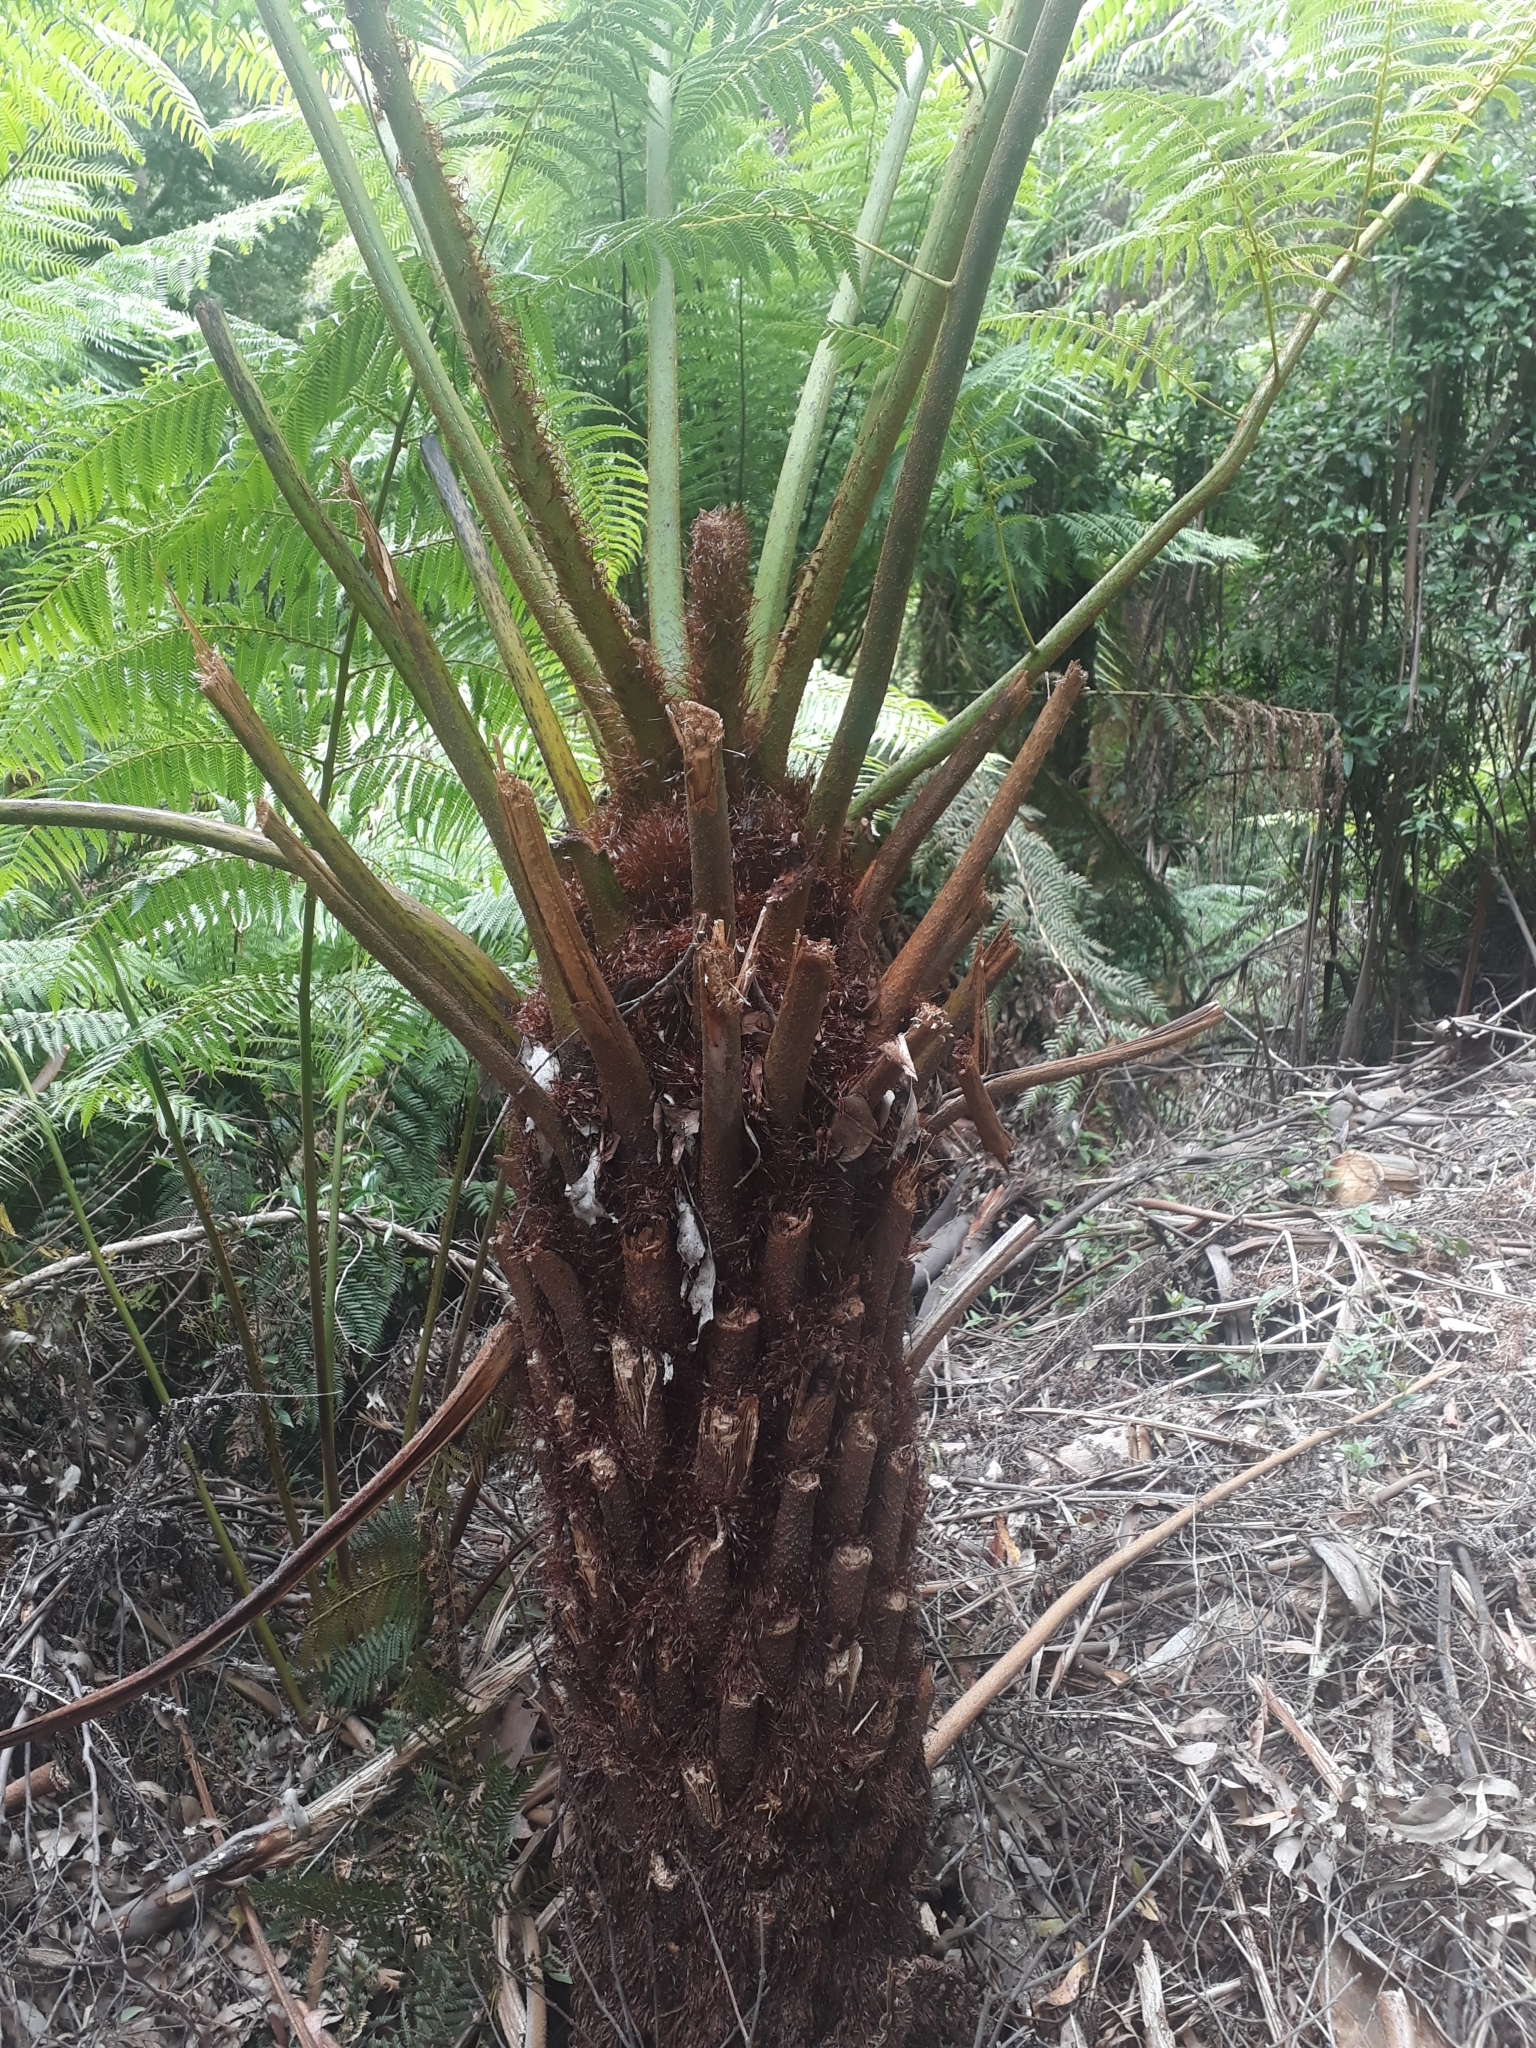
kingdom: Plantae
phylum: Tracheophyta
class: Polypodiopsida
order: Cyatheales
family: Cyatheaceae
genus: Alsophila
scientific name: Alsophila australis
